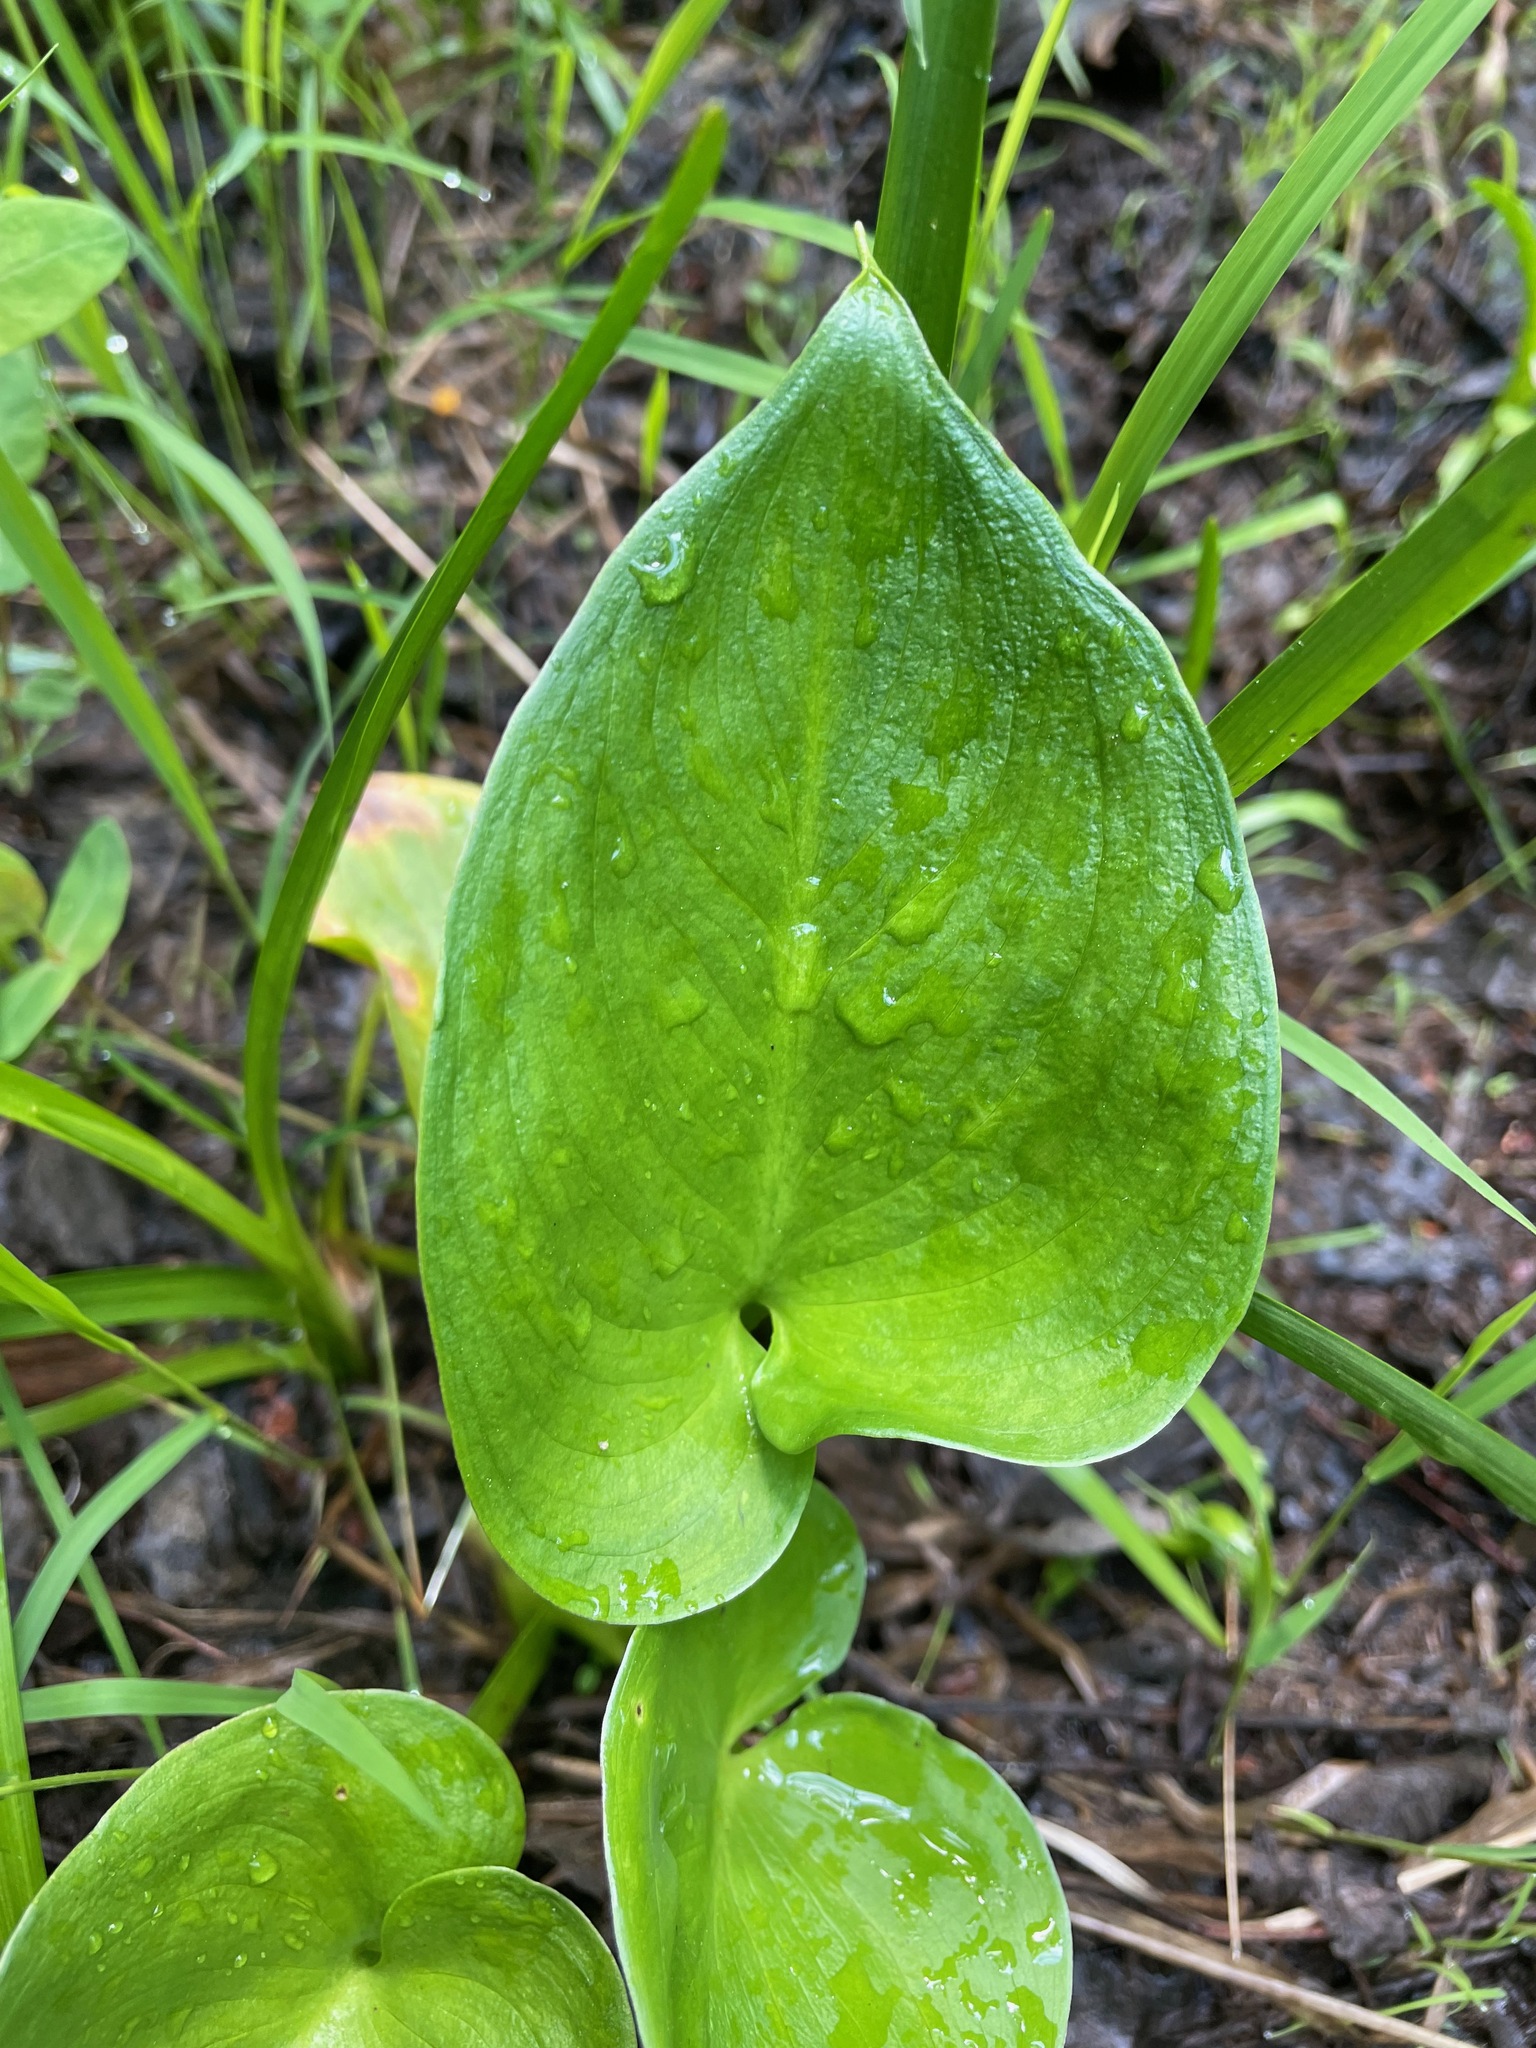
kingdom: Plantae
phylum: Tracheophyta
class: Liliopsida
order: Alismatales
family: Araceae
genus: Calla
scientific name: Calla palustris
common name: Bog arum
